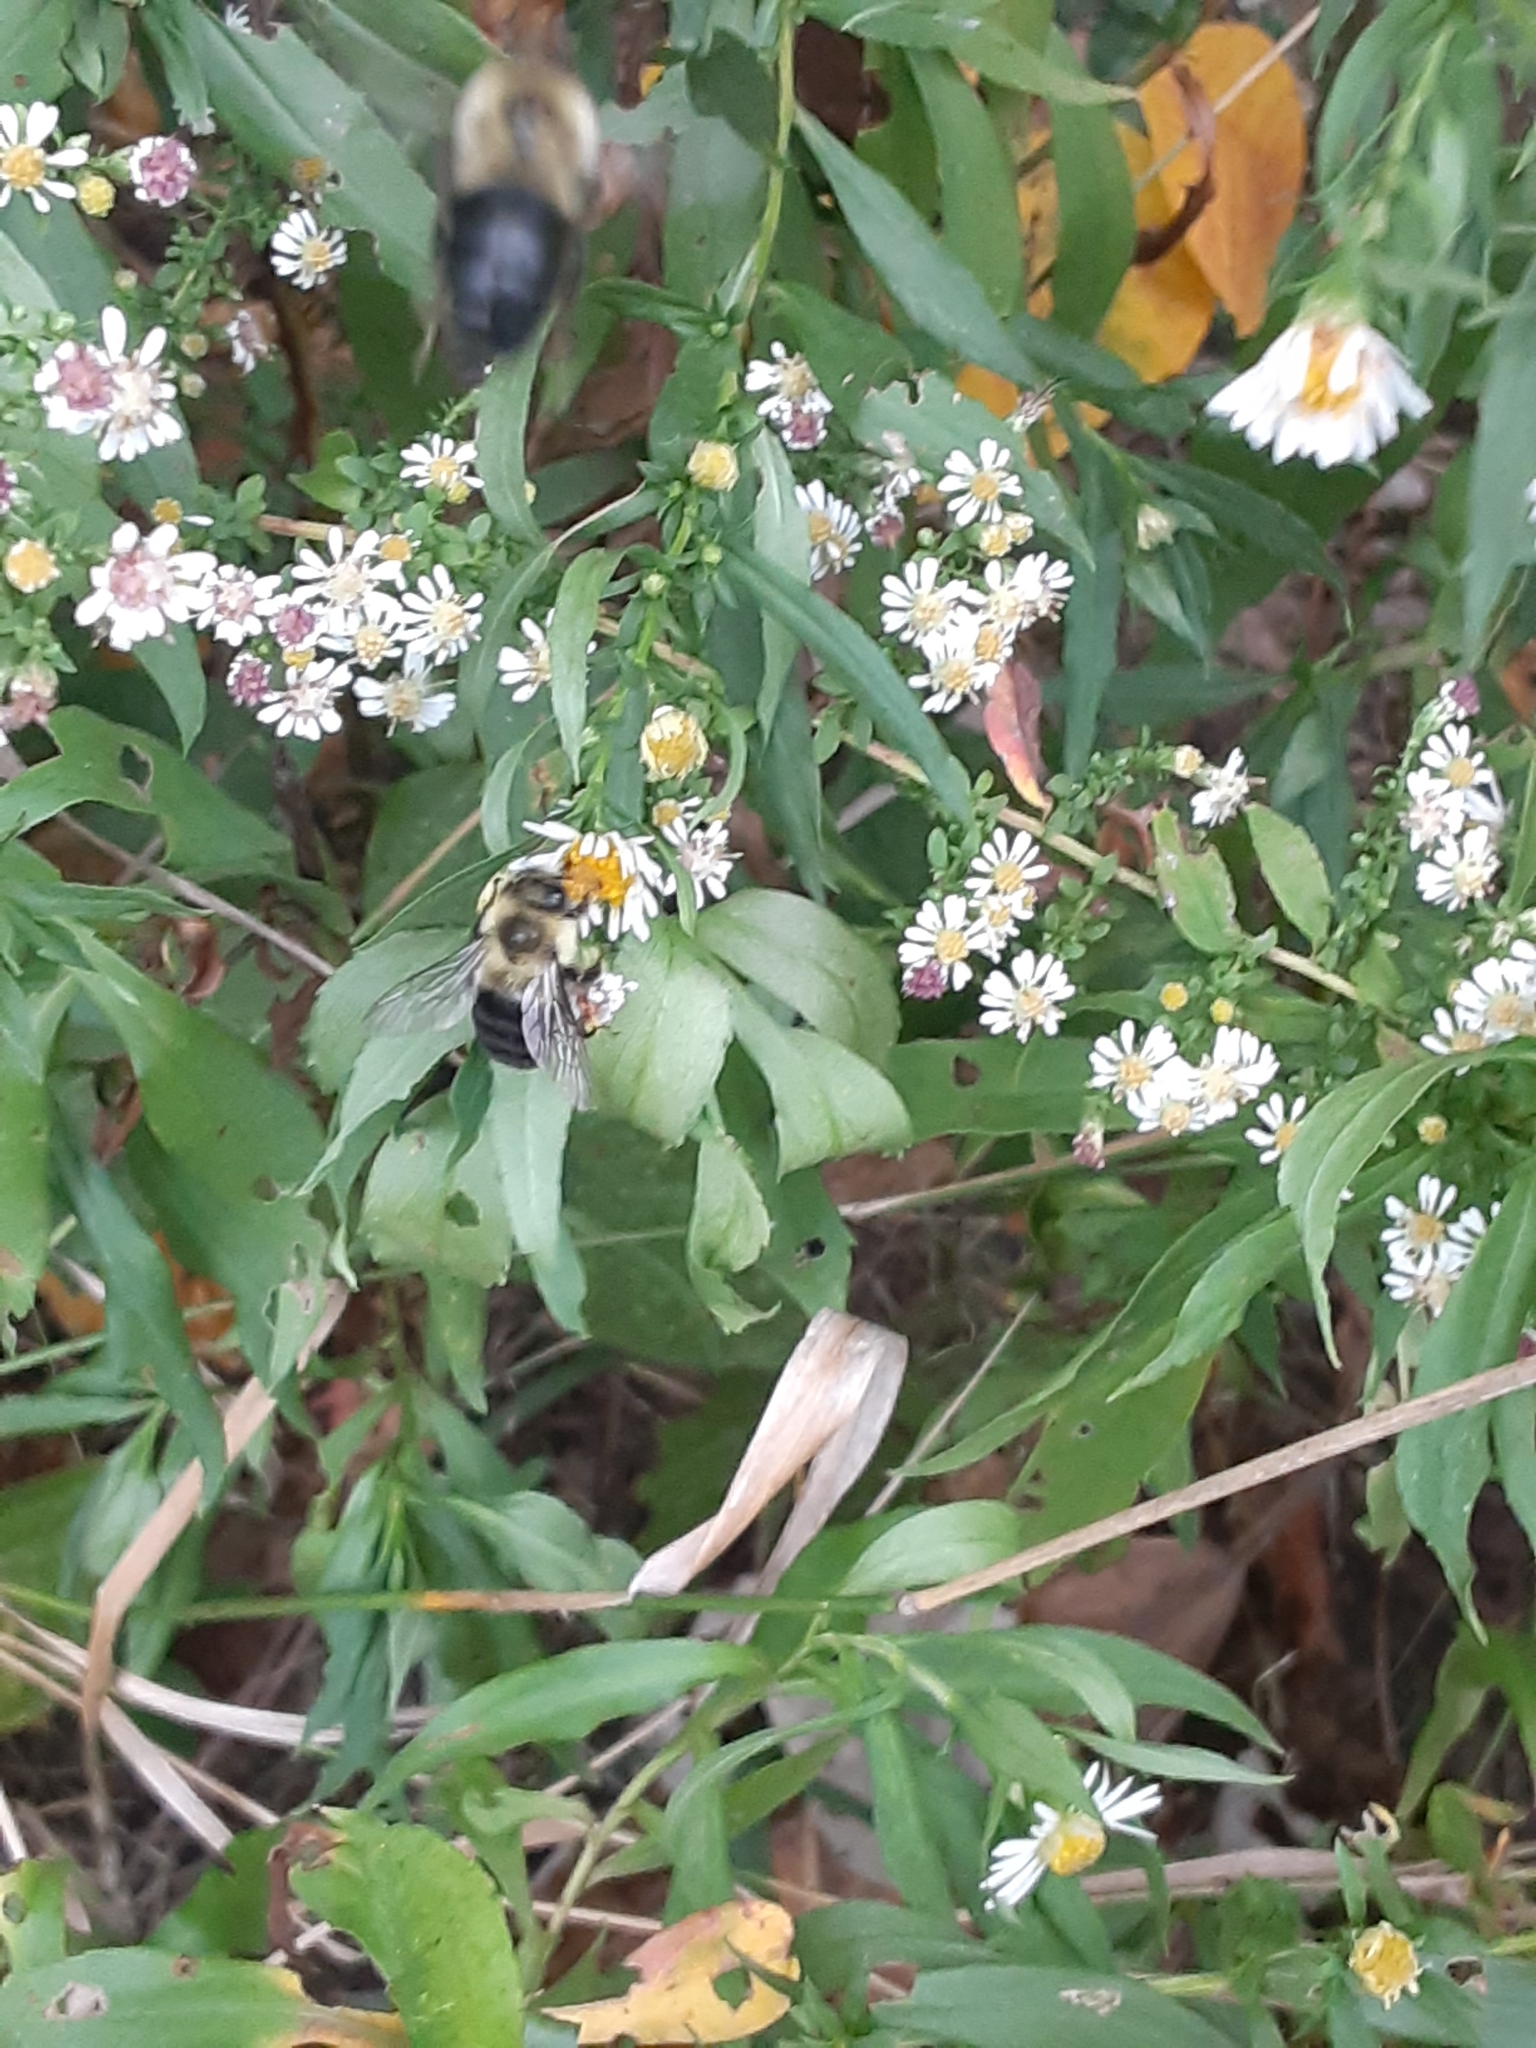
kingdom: Animalia
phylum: Arthropoda
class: Insecta
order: Hymenoptera
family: Apidae
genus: Bombus
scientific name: Bombus impatiens
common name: Common eastern bumble bee
